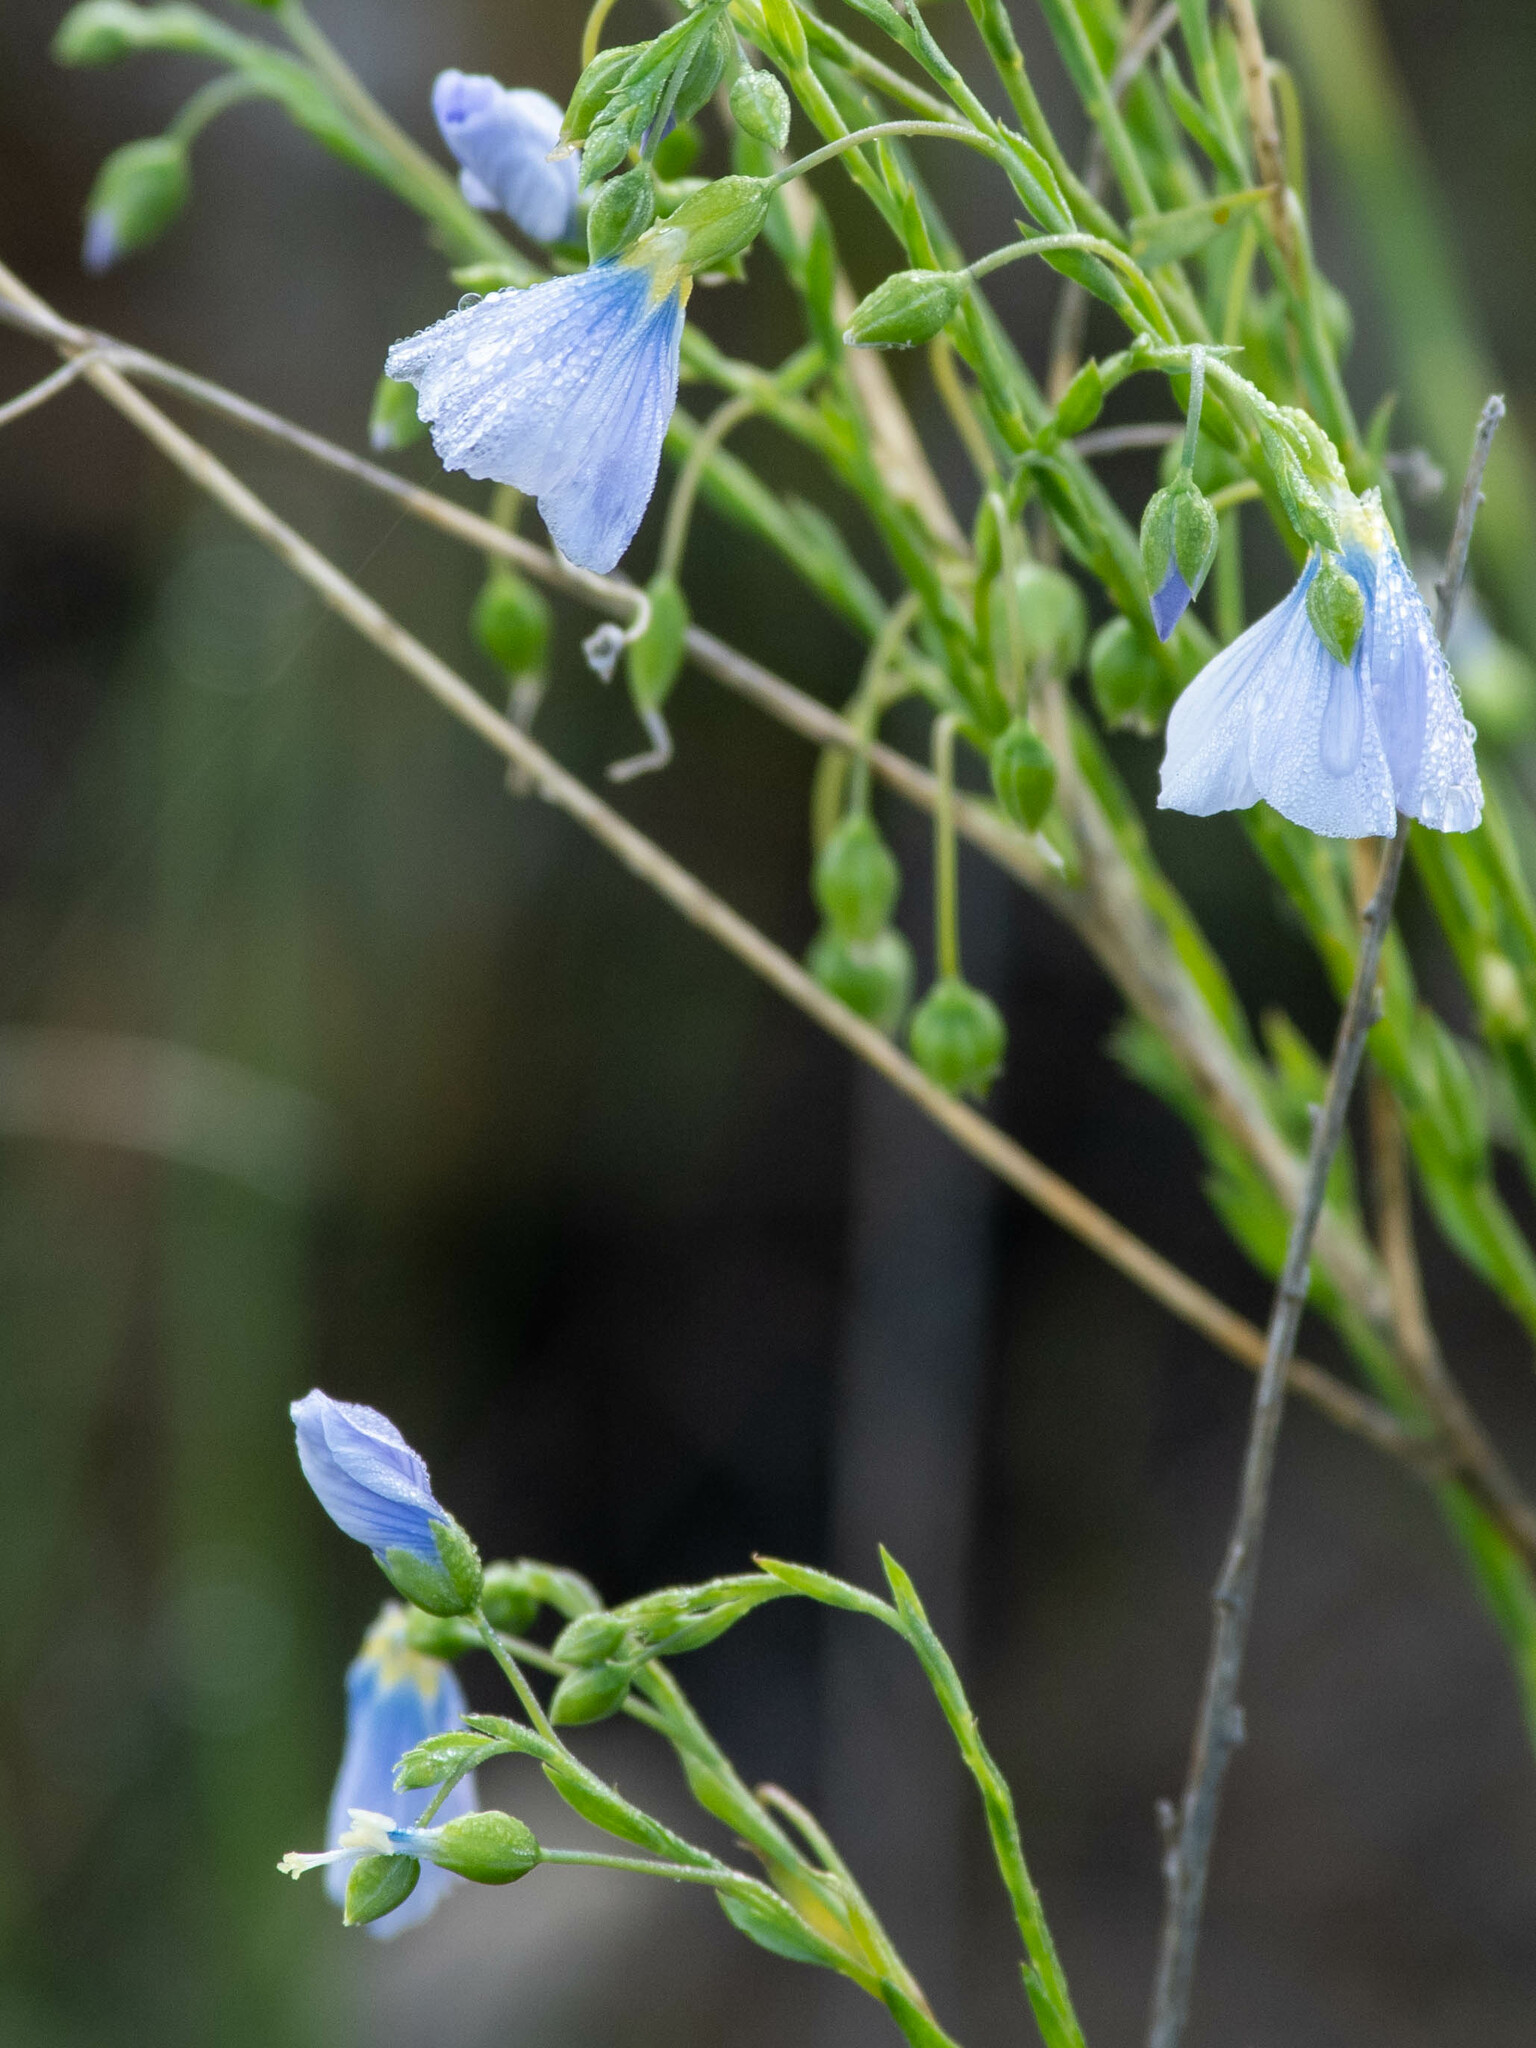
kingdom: Plantae
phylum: Tracheophyta
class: Magnoliopsida
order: Malpighiales
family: Linaceae
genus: Linum
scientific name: Linum lewisii
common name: Prairie flax
